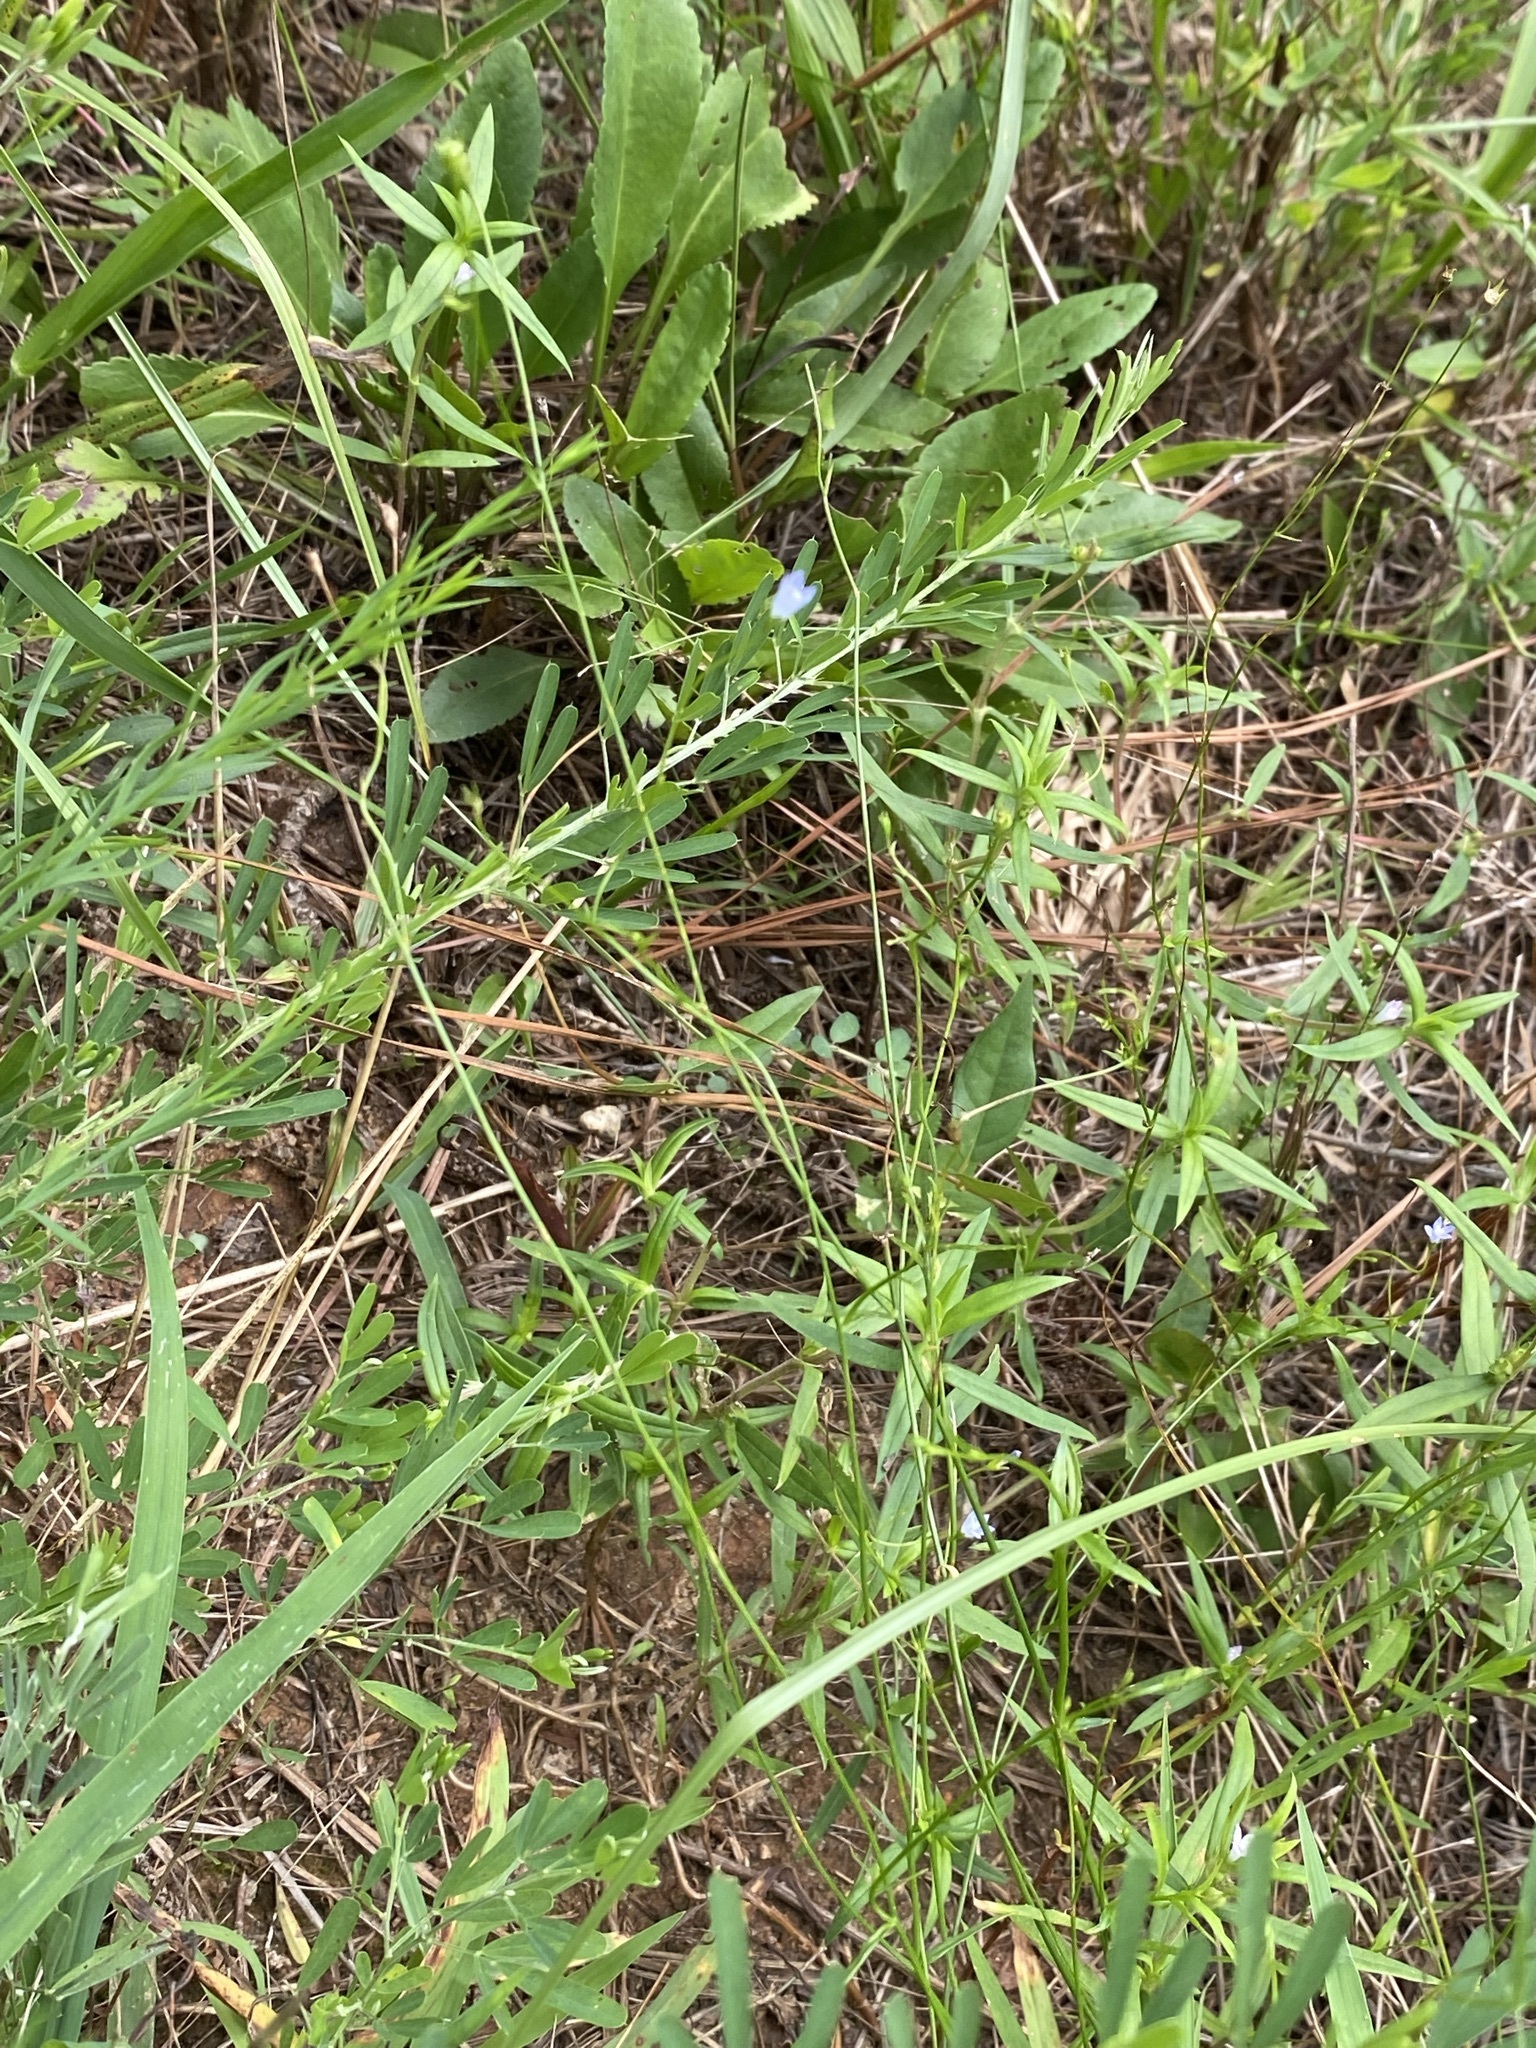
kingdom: Plantae
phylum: Tracheophyta
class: Magnoliopsida
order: Asterales
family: Campanulaceae
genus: Wahlenbergia
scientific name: Wahlenbergia marginata
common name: Southern rockbell
